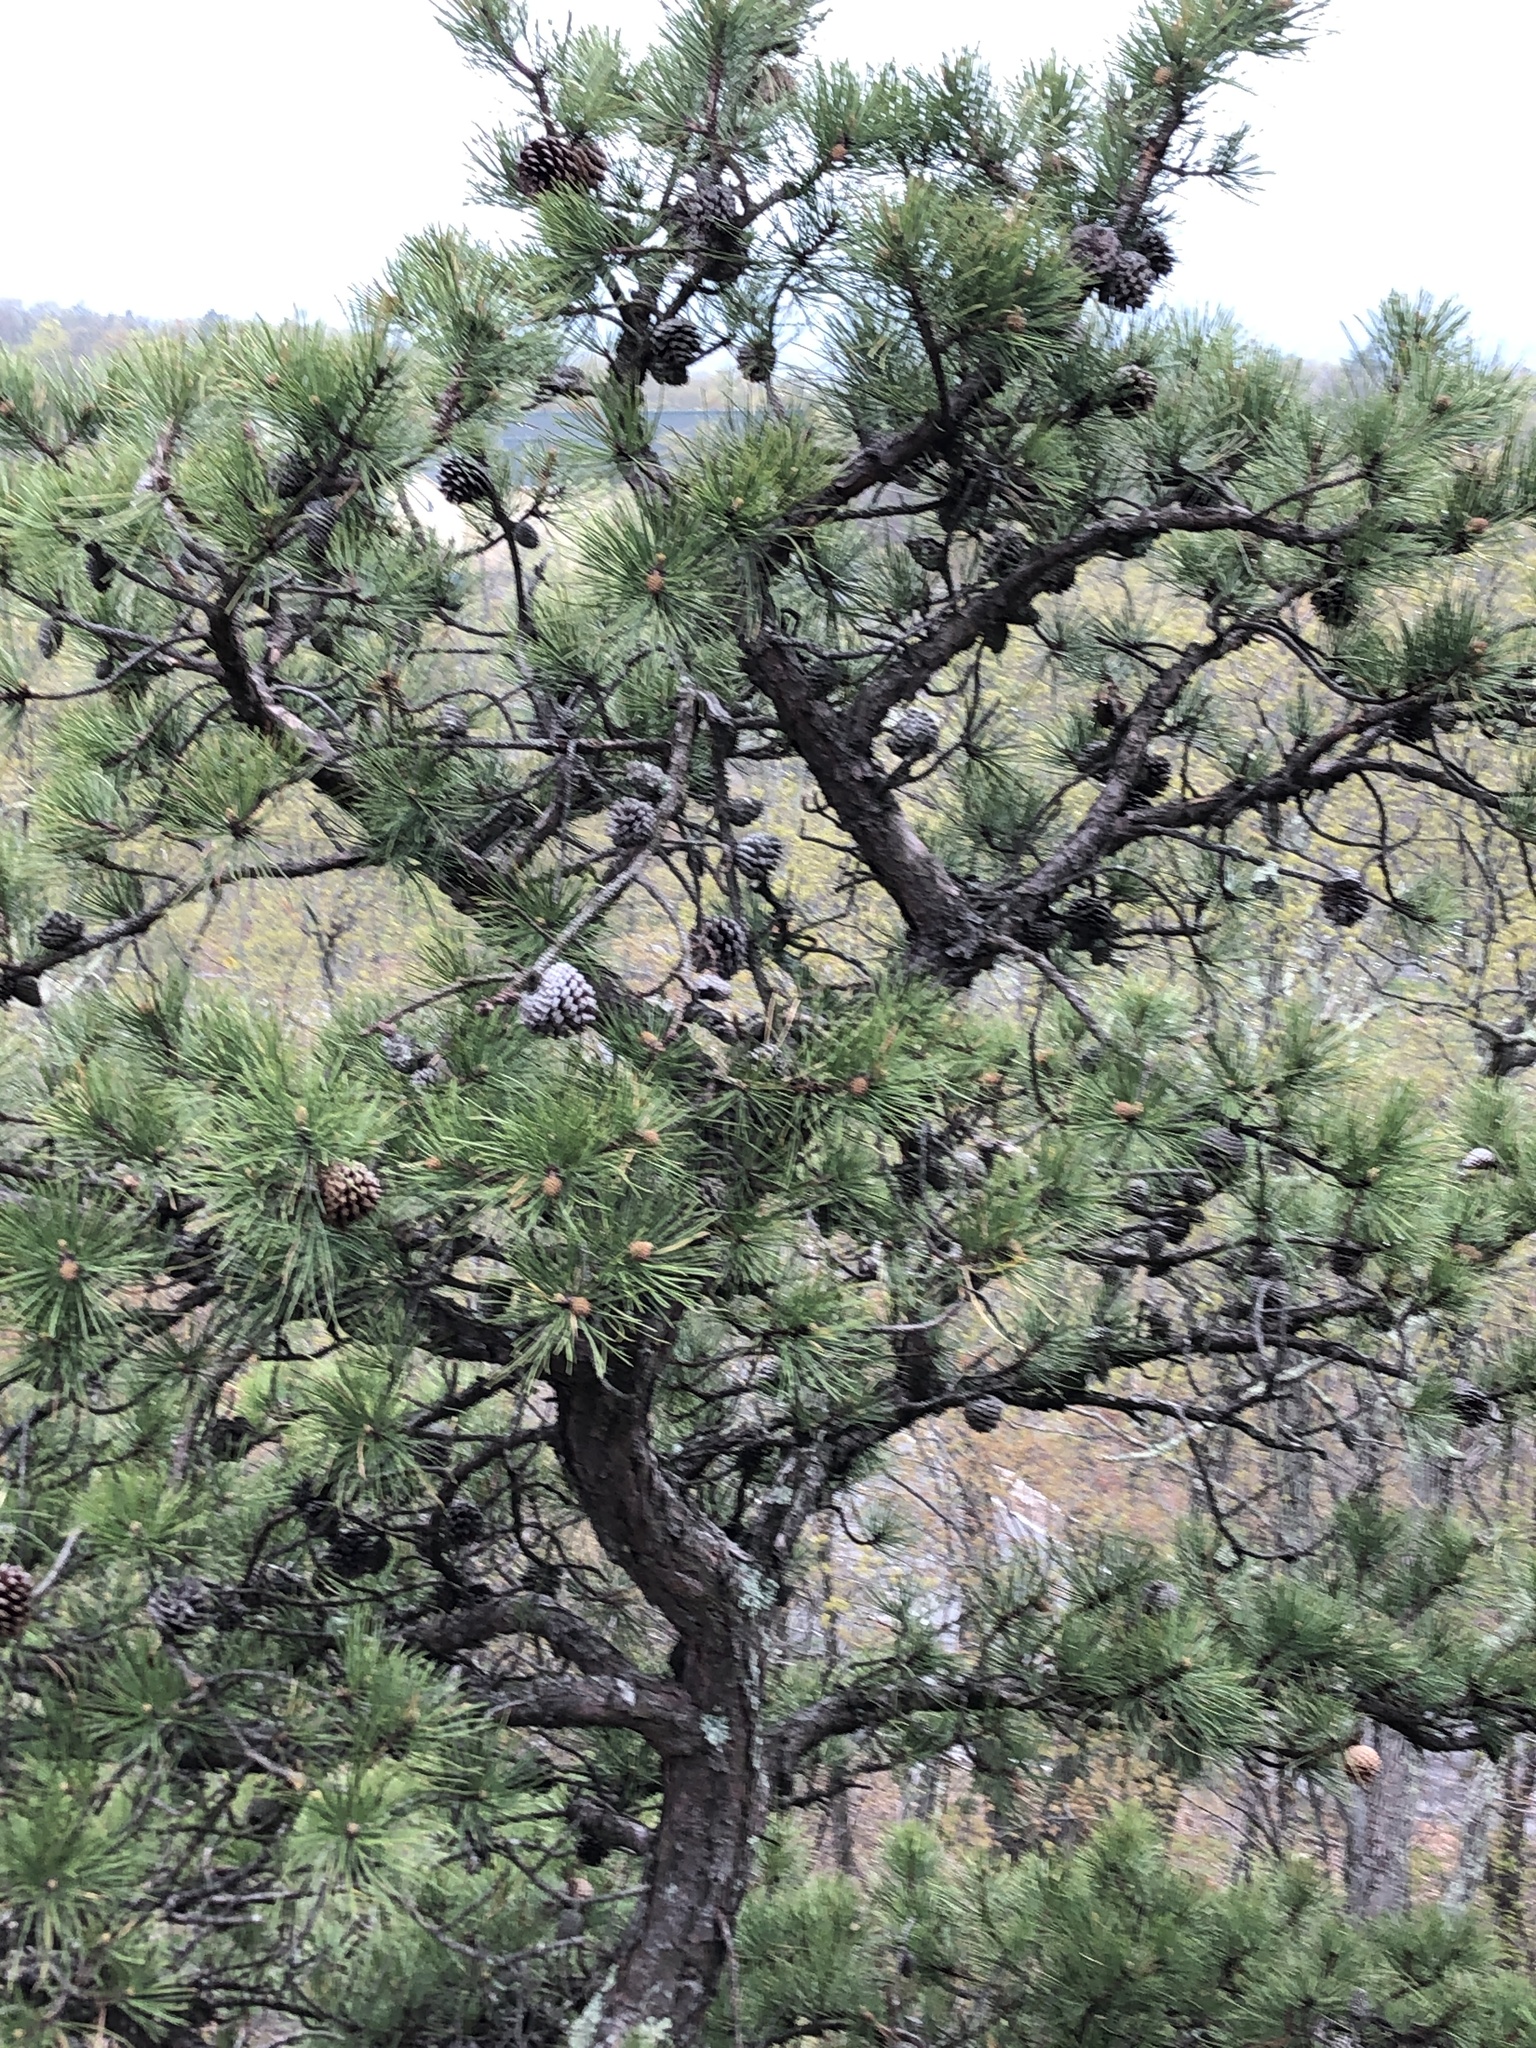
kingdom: Plantae
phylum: Tracheophyta
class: Pinopsida
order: Pinales
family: Pinaceae
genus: Pinus
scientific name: Pinus rigida
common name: Pitch pine
